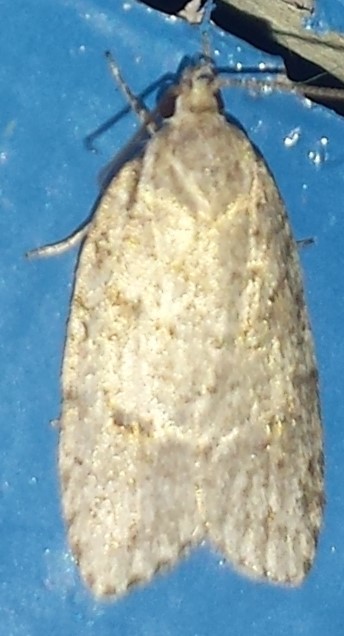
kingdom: Animalia
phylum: Arthropoda
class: Insecta
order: Lepidoptera
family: Depressariidae
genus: Bibarrambla
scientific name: Bibarrambla allenella
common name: Bog bibarrambla moth
